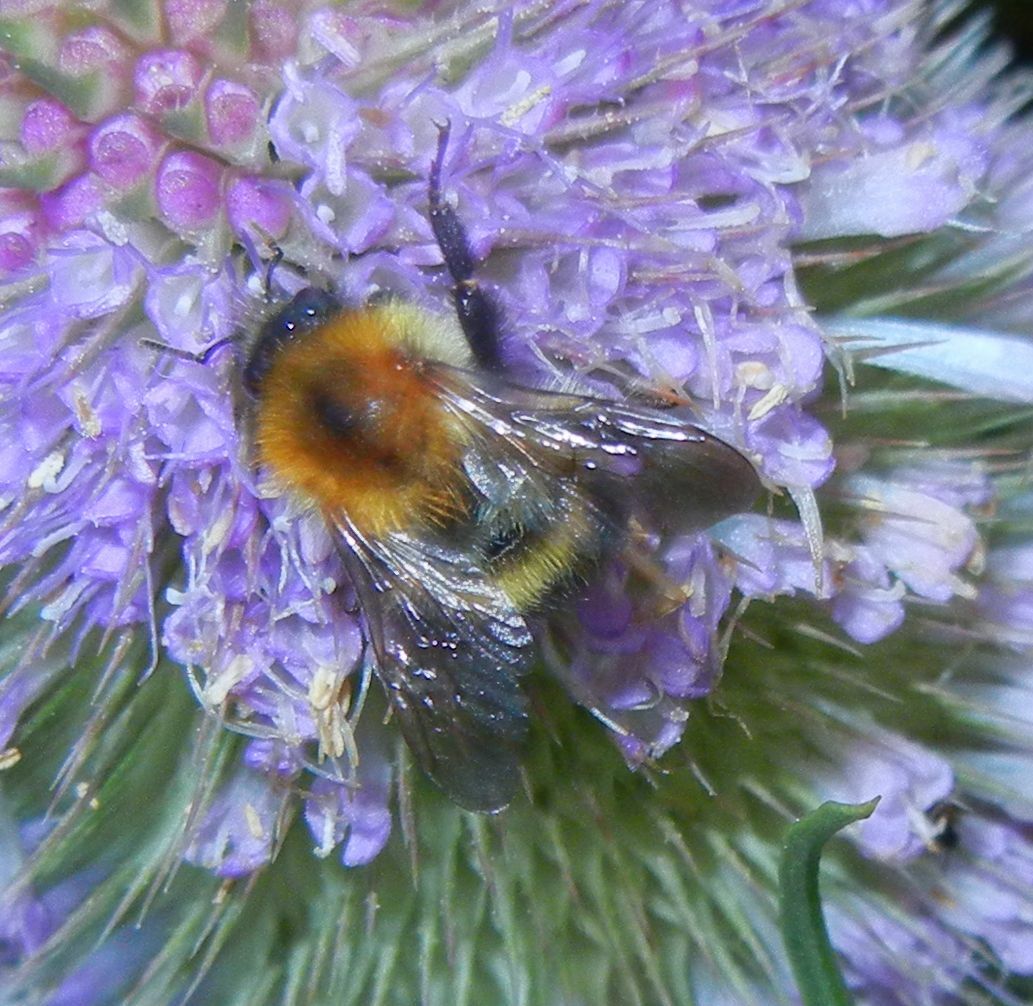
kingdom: Animalia
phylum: Arthropoda
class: Insecta
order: Hymenoptera
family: Apidae
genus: Bombus
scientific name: Bombus pascuorum
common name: Common carder bee
